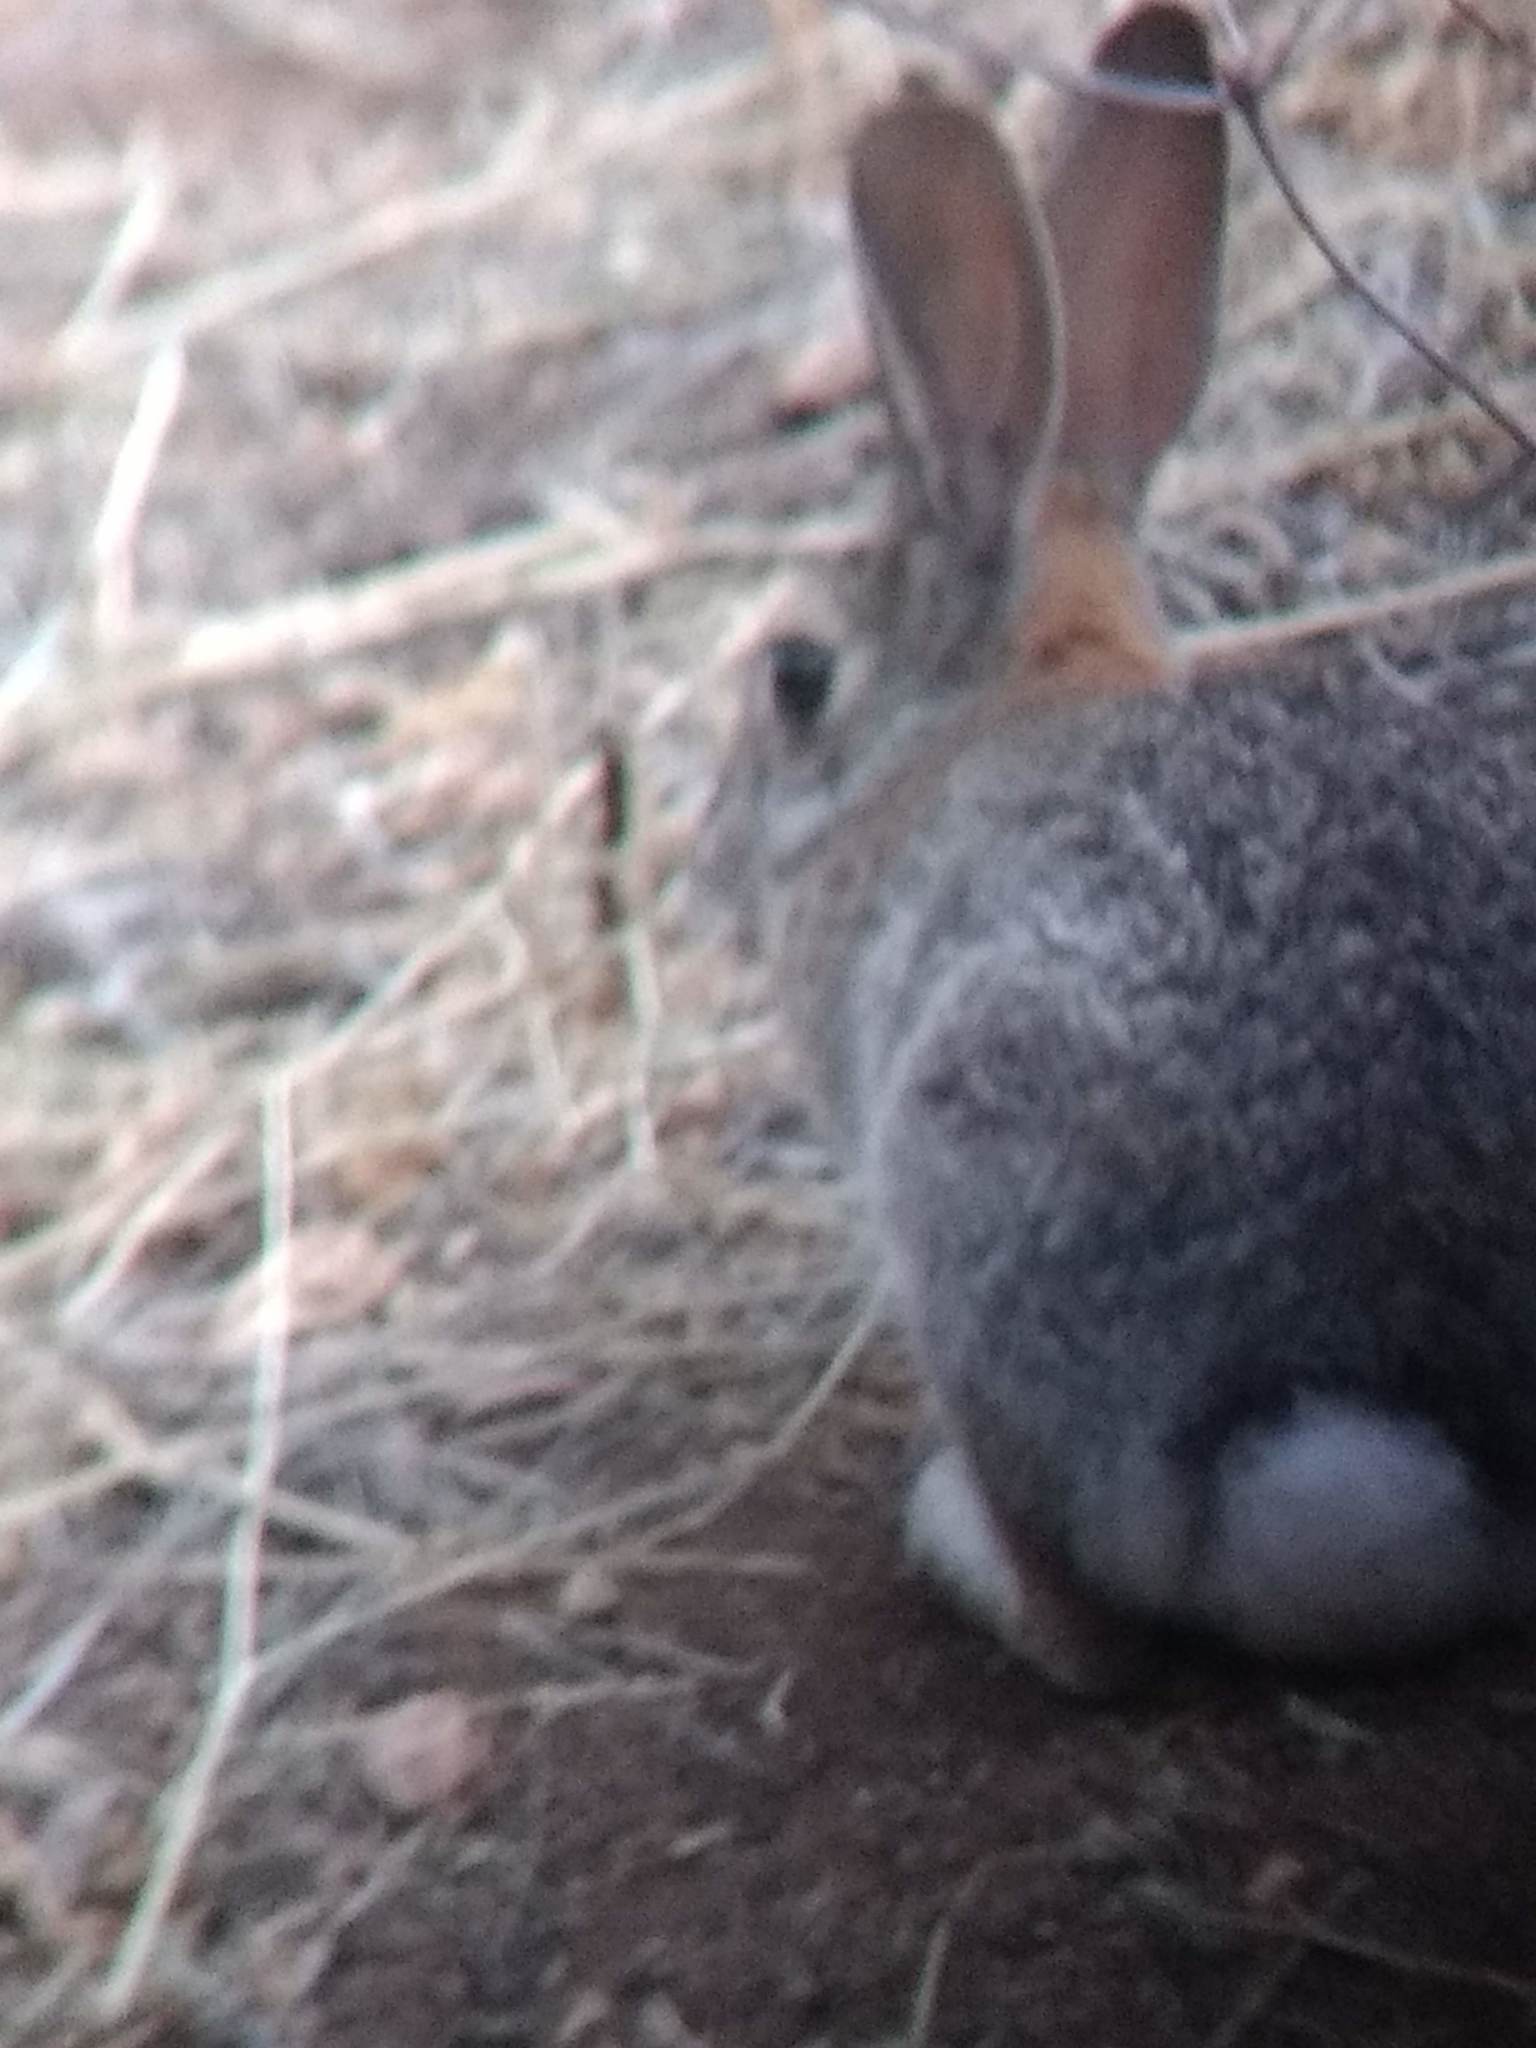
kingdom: Animalia
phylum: Chordata
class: Mammalia
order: Lagomorpha
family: Leporidae
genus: Sylvilagus
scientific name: Sylvilagus audubonii
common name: Desert cottontail
